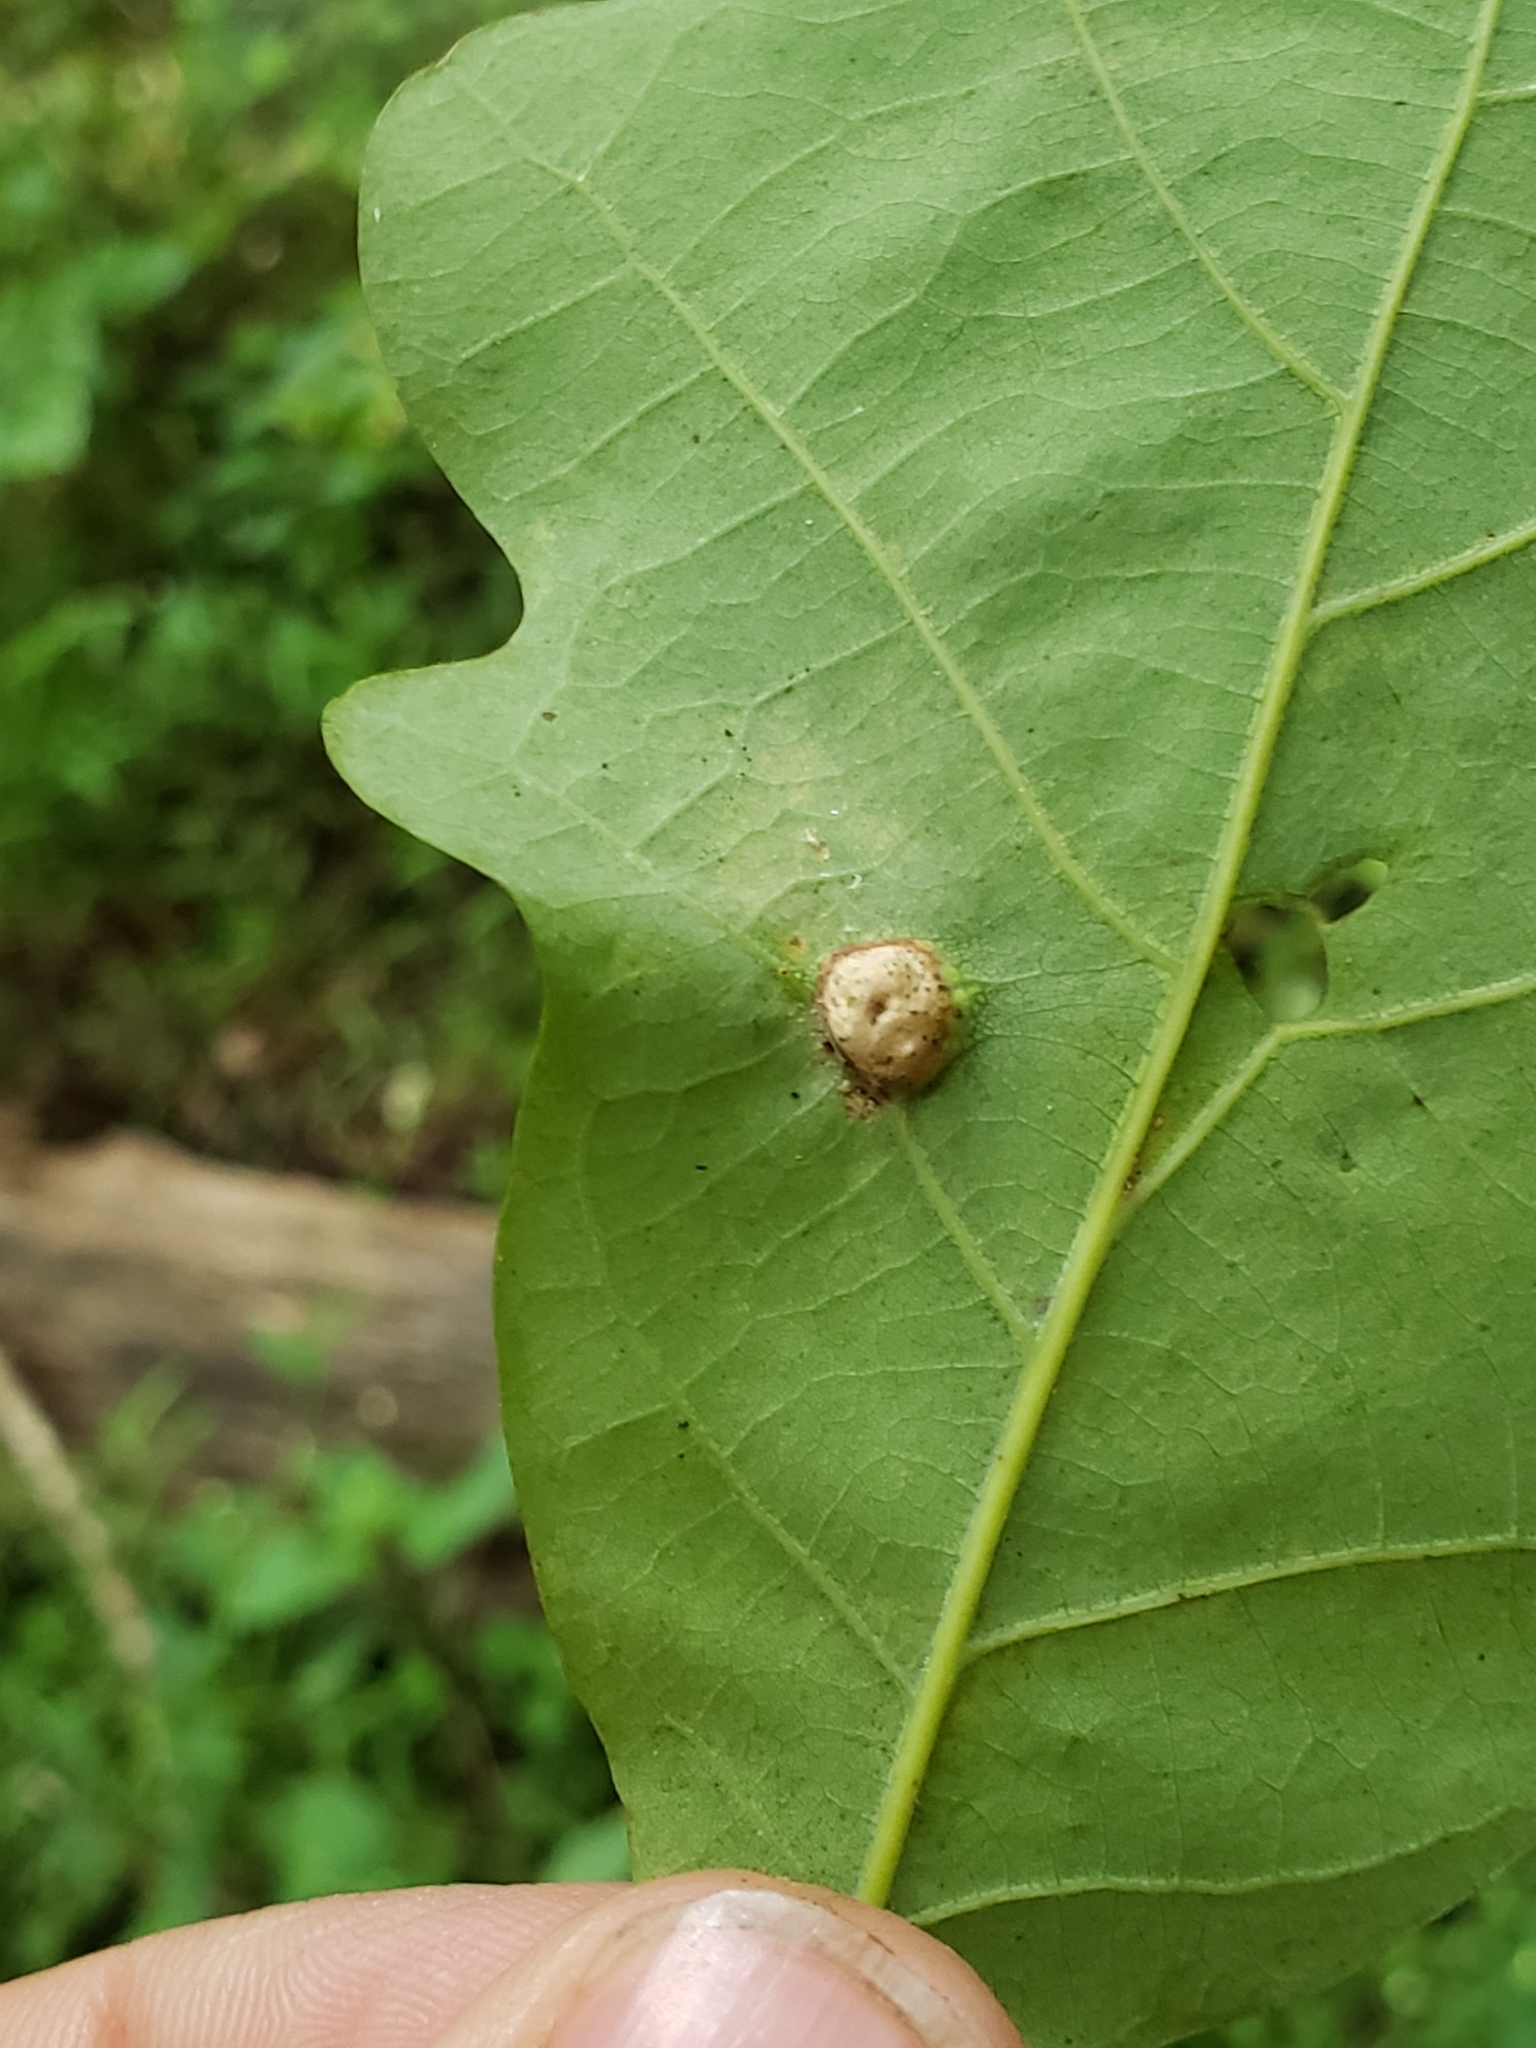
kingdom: Animalia
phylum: Arthropoda
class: Insecta
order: Hymenoptera
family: Cynipidae
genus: Callirhytis
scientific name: Callirhytis
